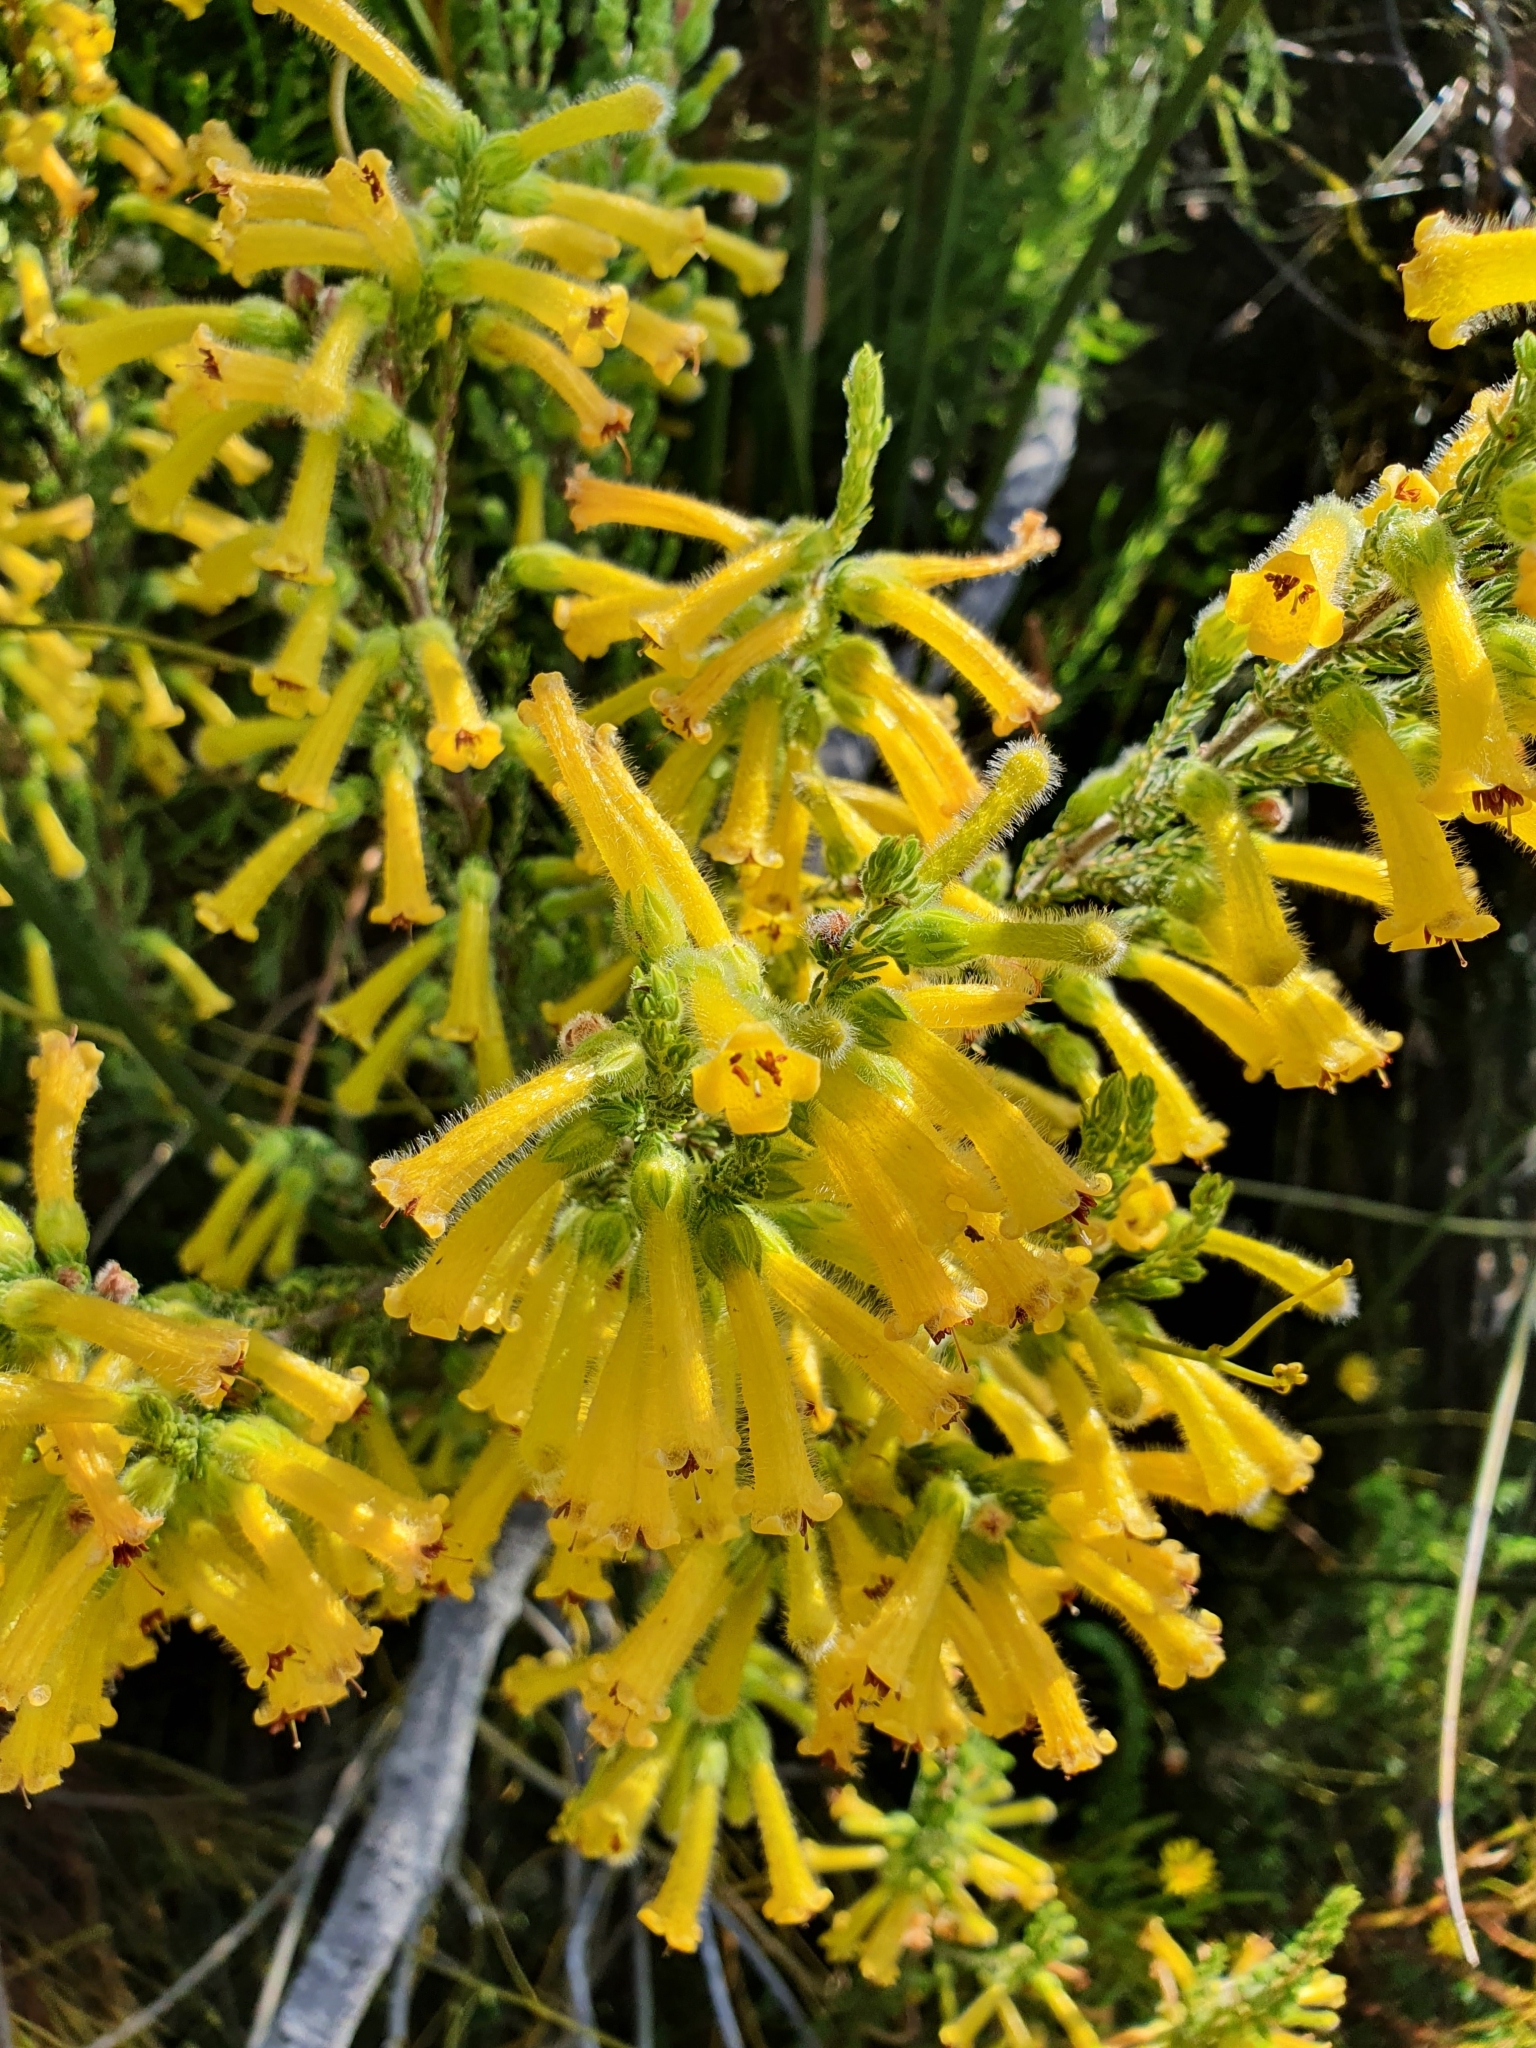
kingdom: Plantae
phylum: Tracheophyta
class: Magnoliopsida
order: Ericales
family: Ericaceae
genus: Erica
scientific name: Erica stagnalis
